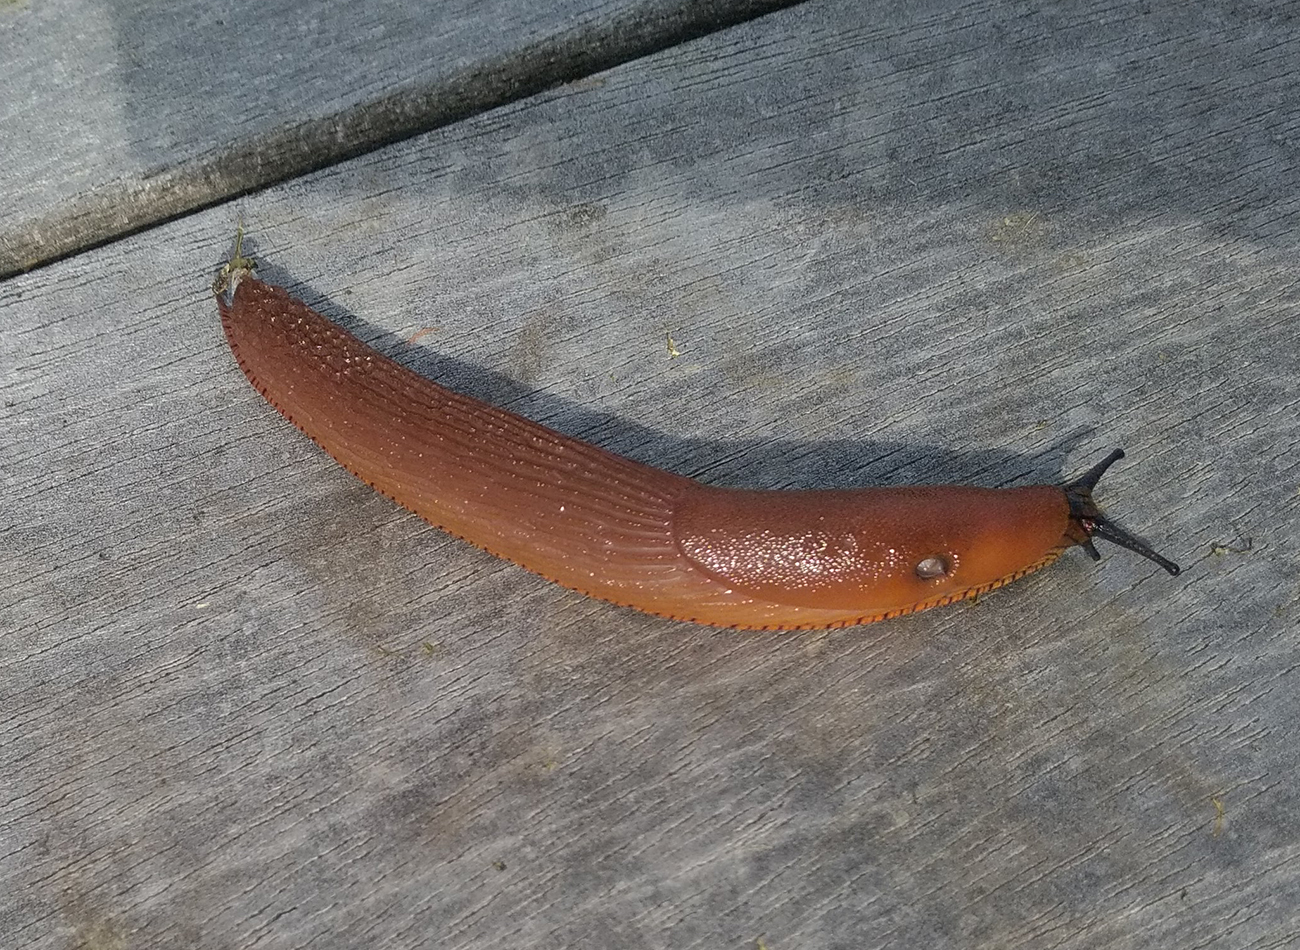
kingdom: Animalia
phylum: Mollusca
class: Gastropoda
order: Stylommatophora
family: Arionidae
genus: Arion
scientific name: Arion rufus
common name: Chocolate arion
